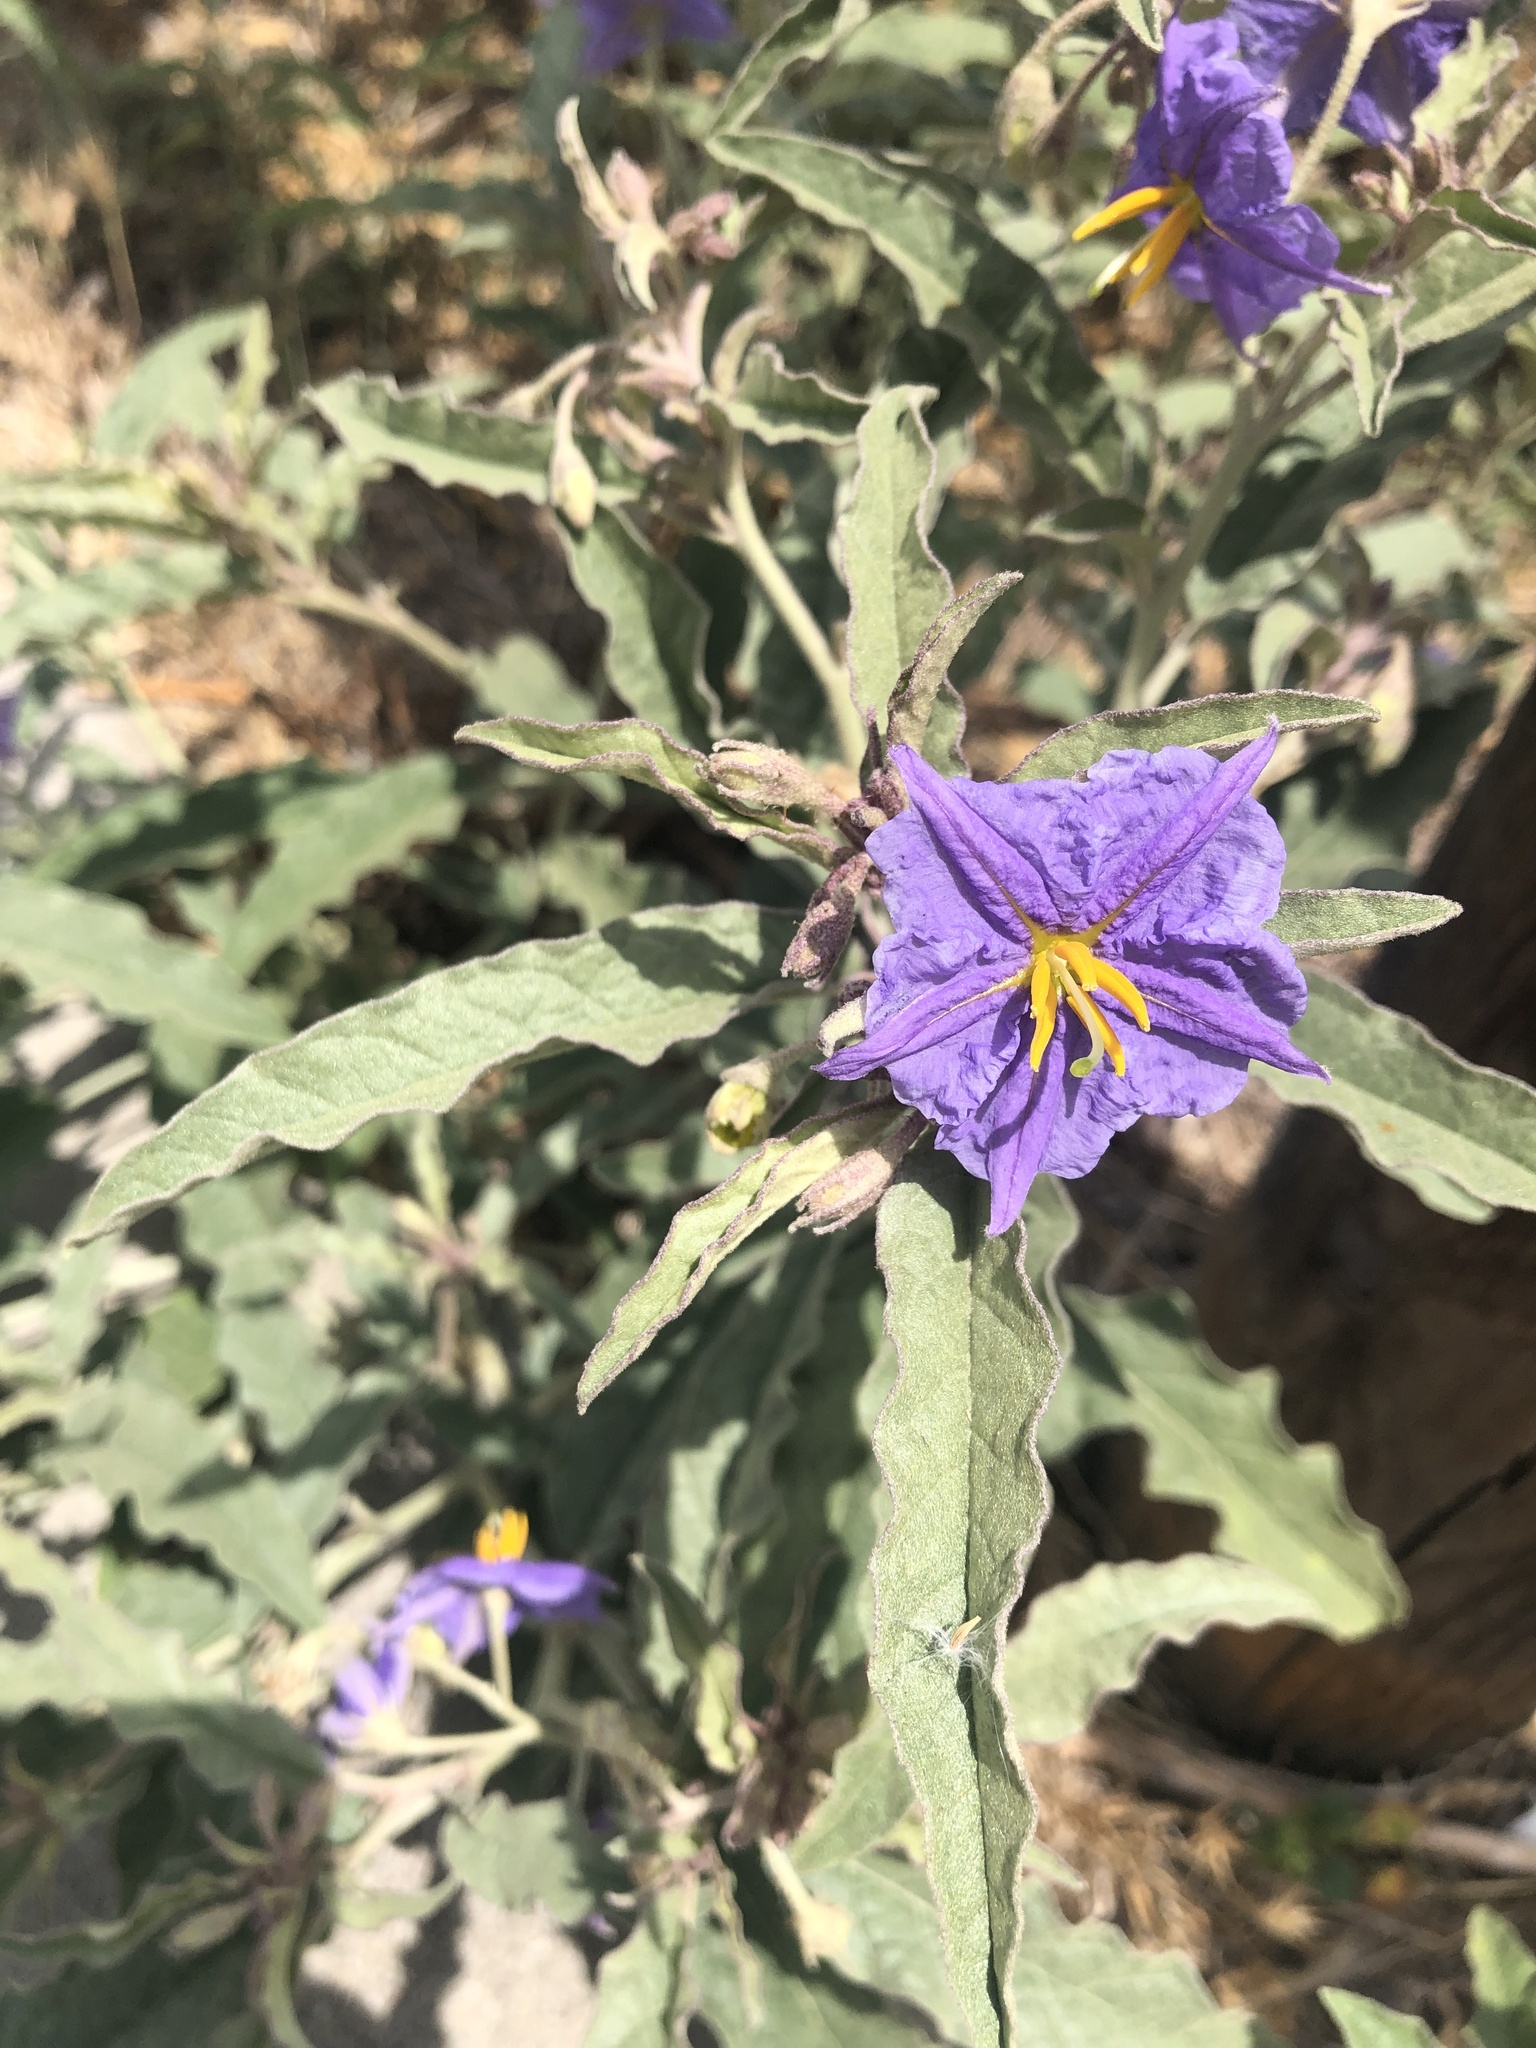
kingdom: Plantae
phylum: Tracheophyta
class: Magnoliopsida
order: Solanales
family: Solanaceae
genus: Solanum
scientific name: Solanum elaeagnifolium
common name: Silverleaf nightshade
